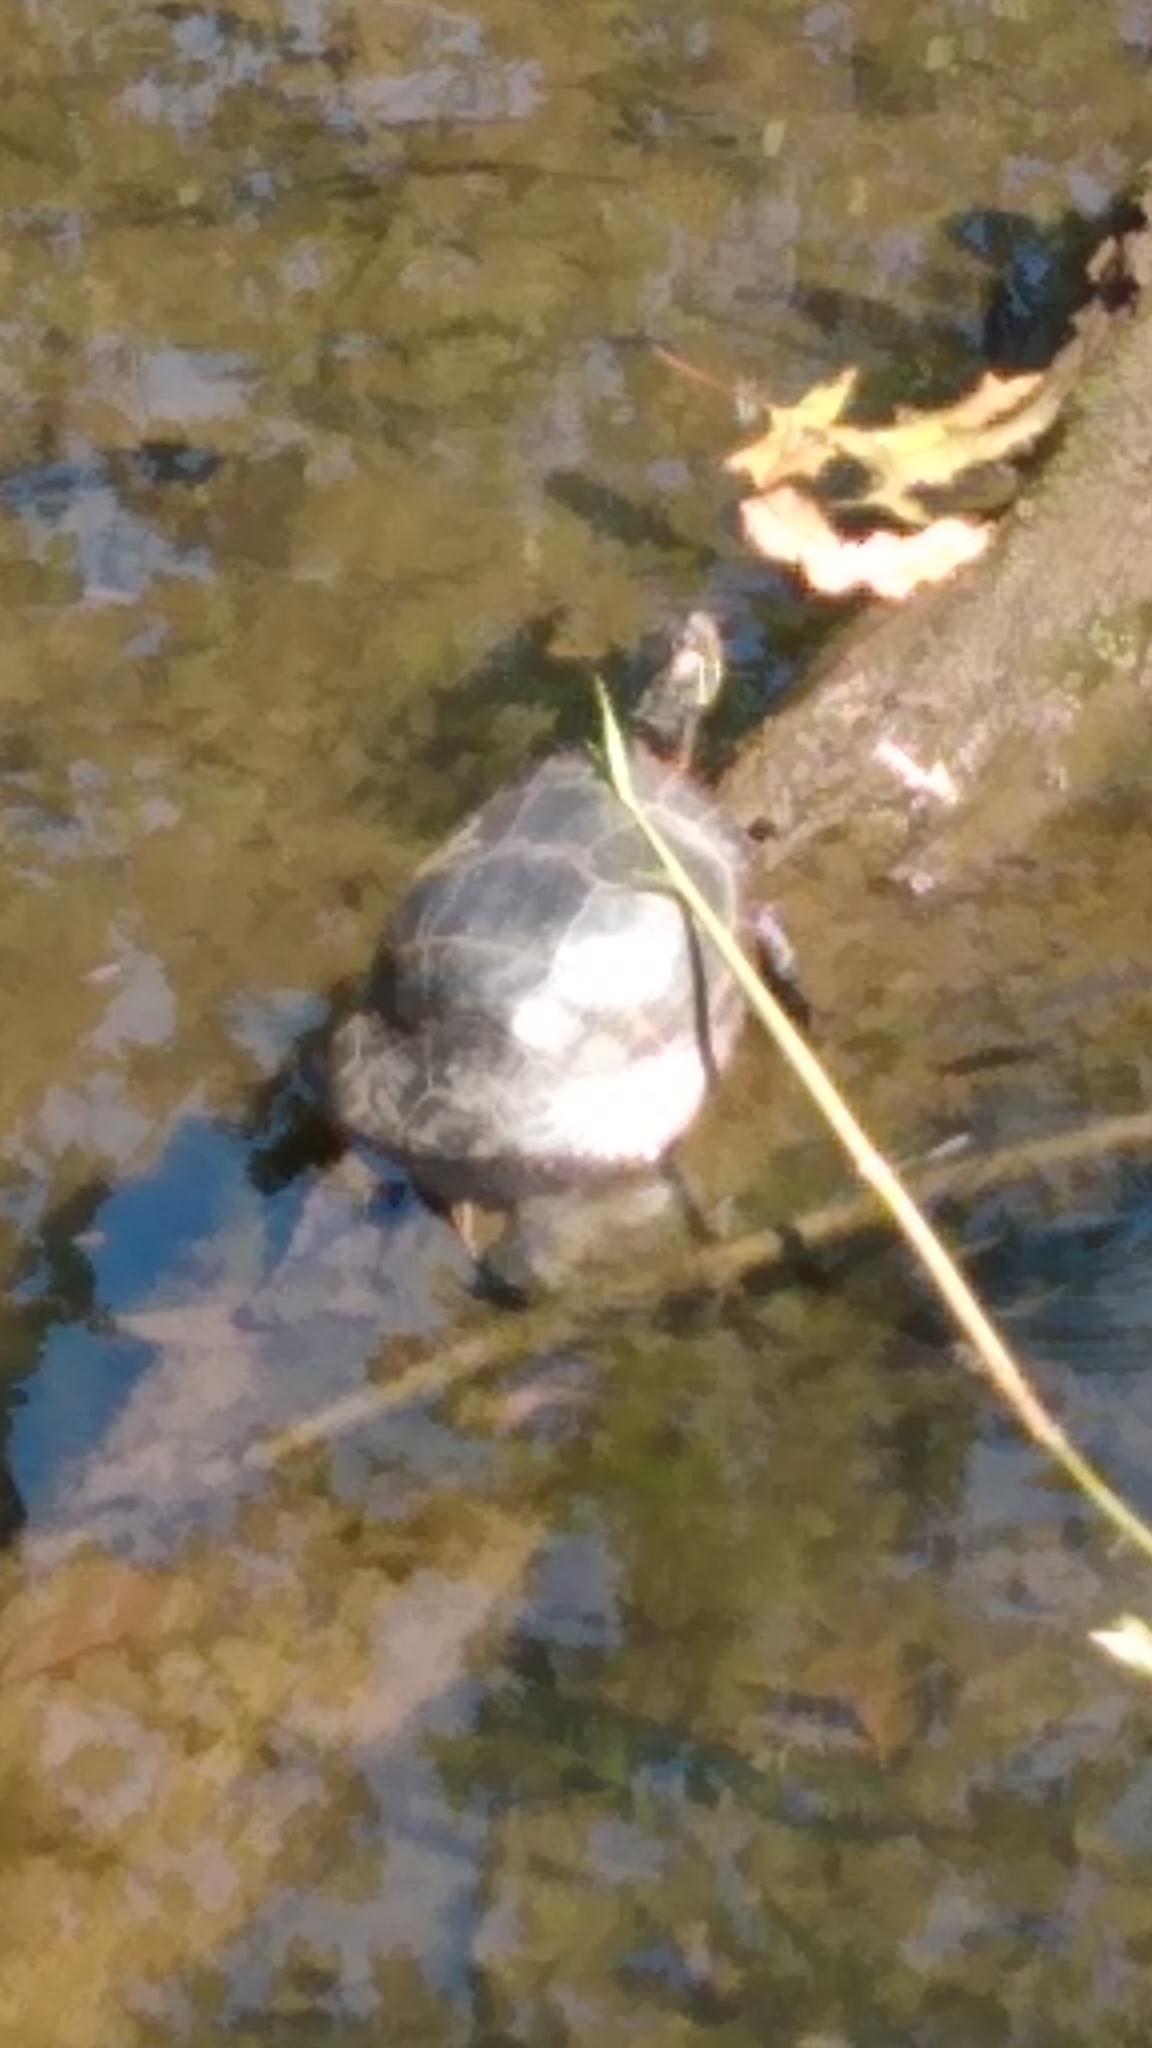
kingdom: Animalia
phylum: Chordata
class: Testudines
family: Emydidae
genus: Chrysemys
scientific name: Chrysemys picta
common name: Painted turtle
